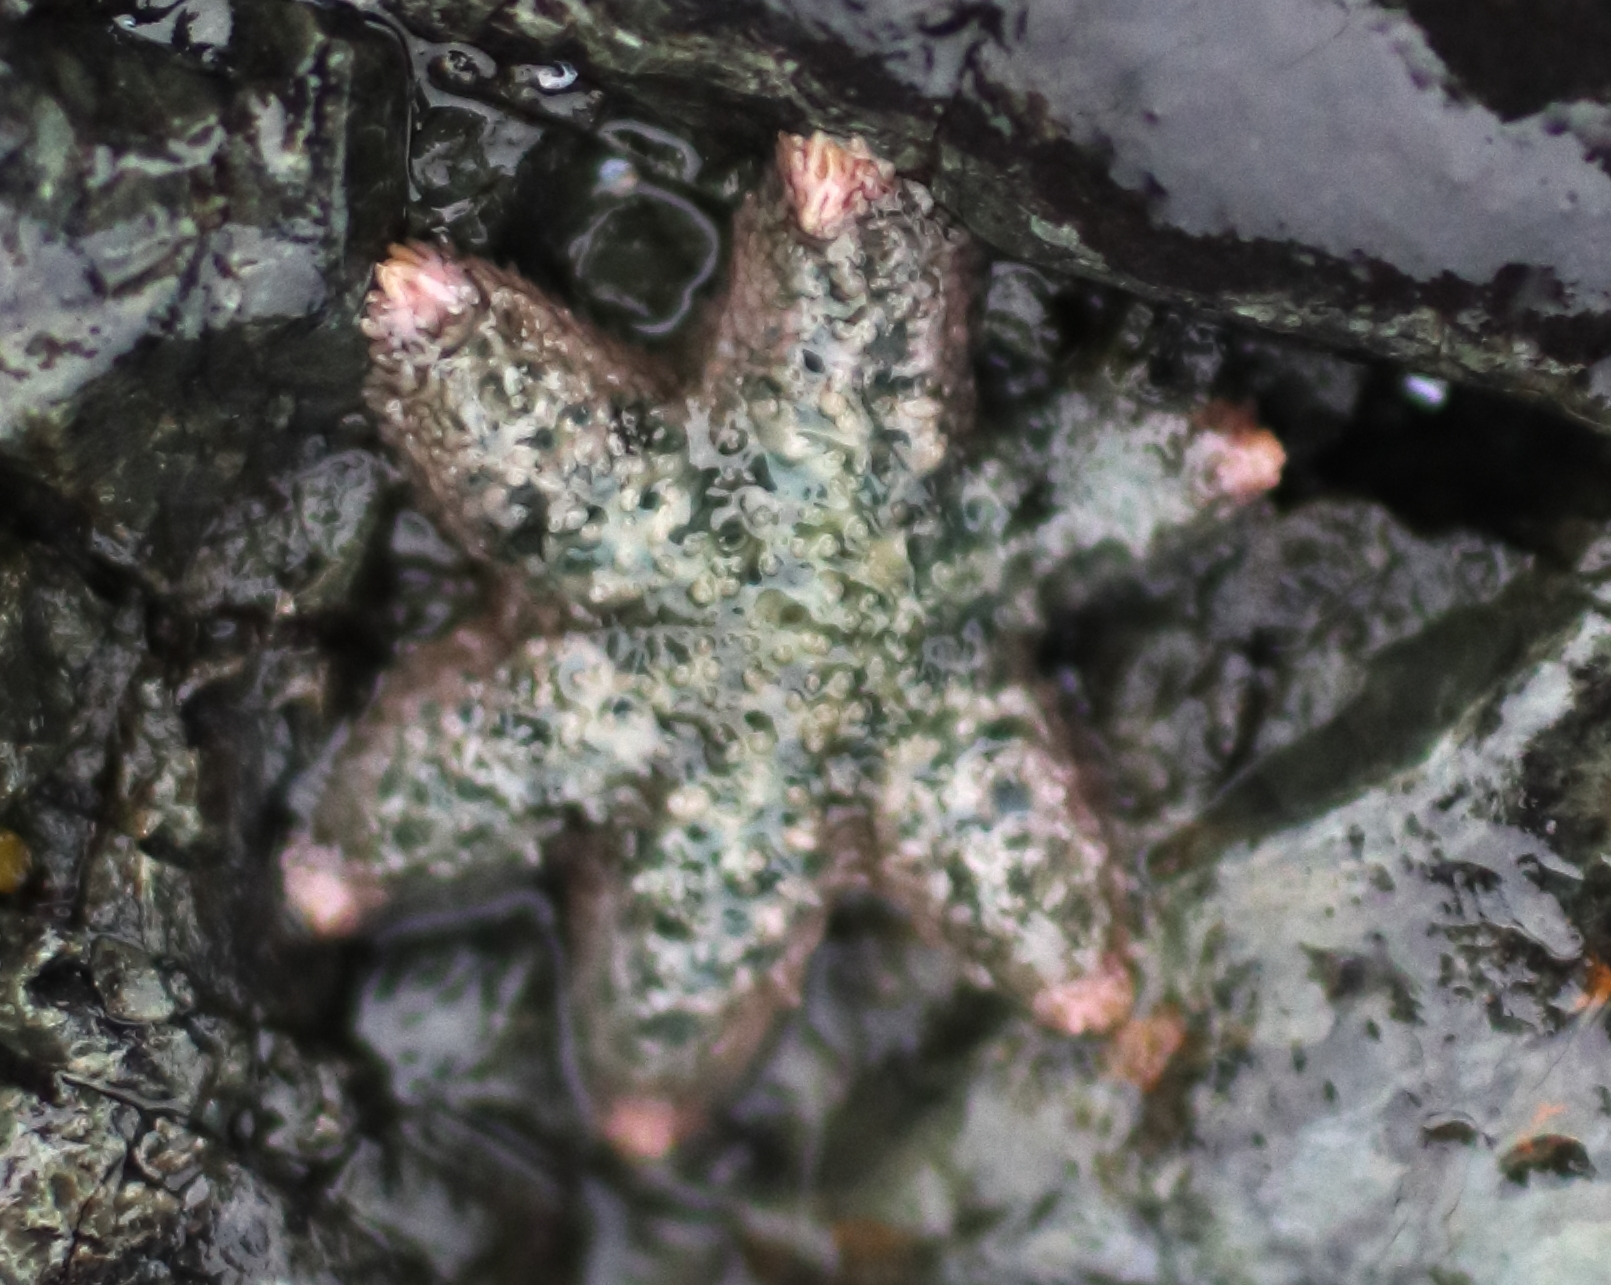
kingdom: Animalia
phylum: Echinodermata
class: Asteroidea
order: Forcipulatida
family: Asteriidae
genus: Leptasterias
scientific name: Leptasterias
